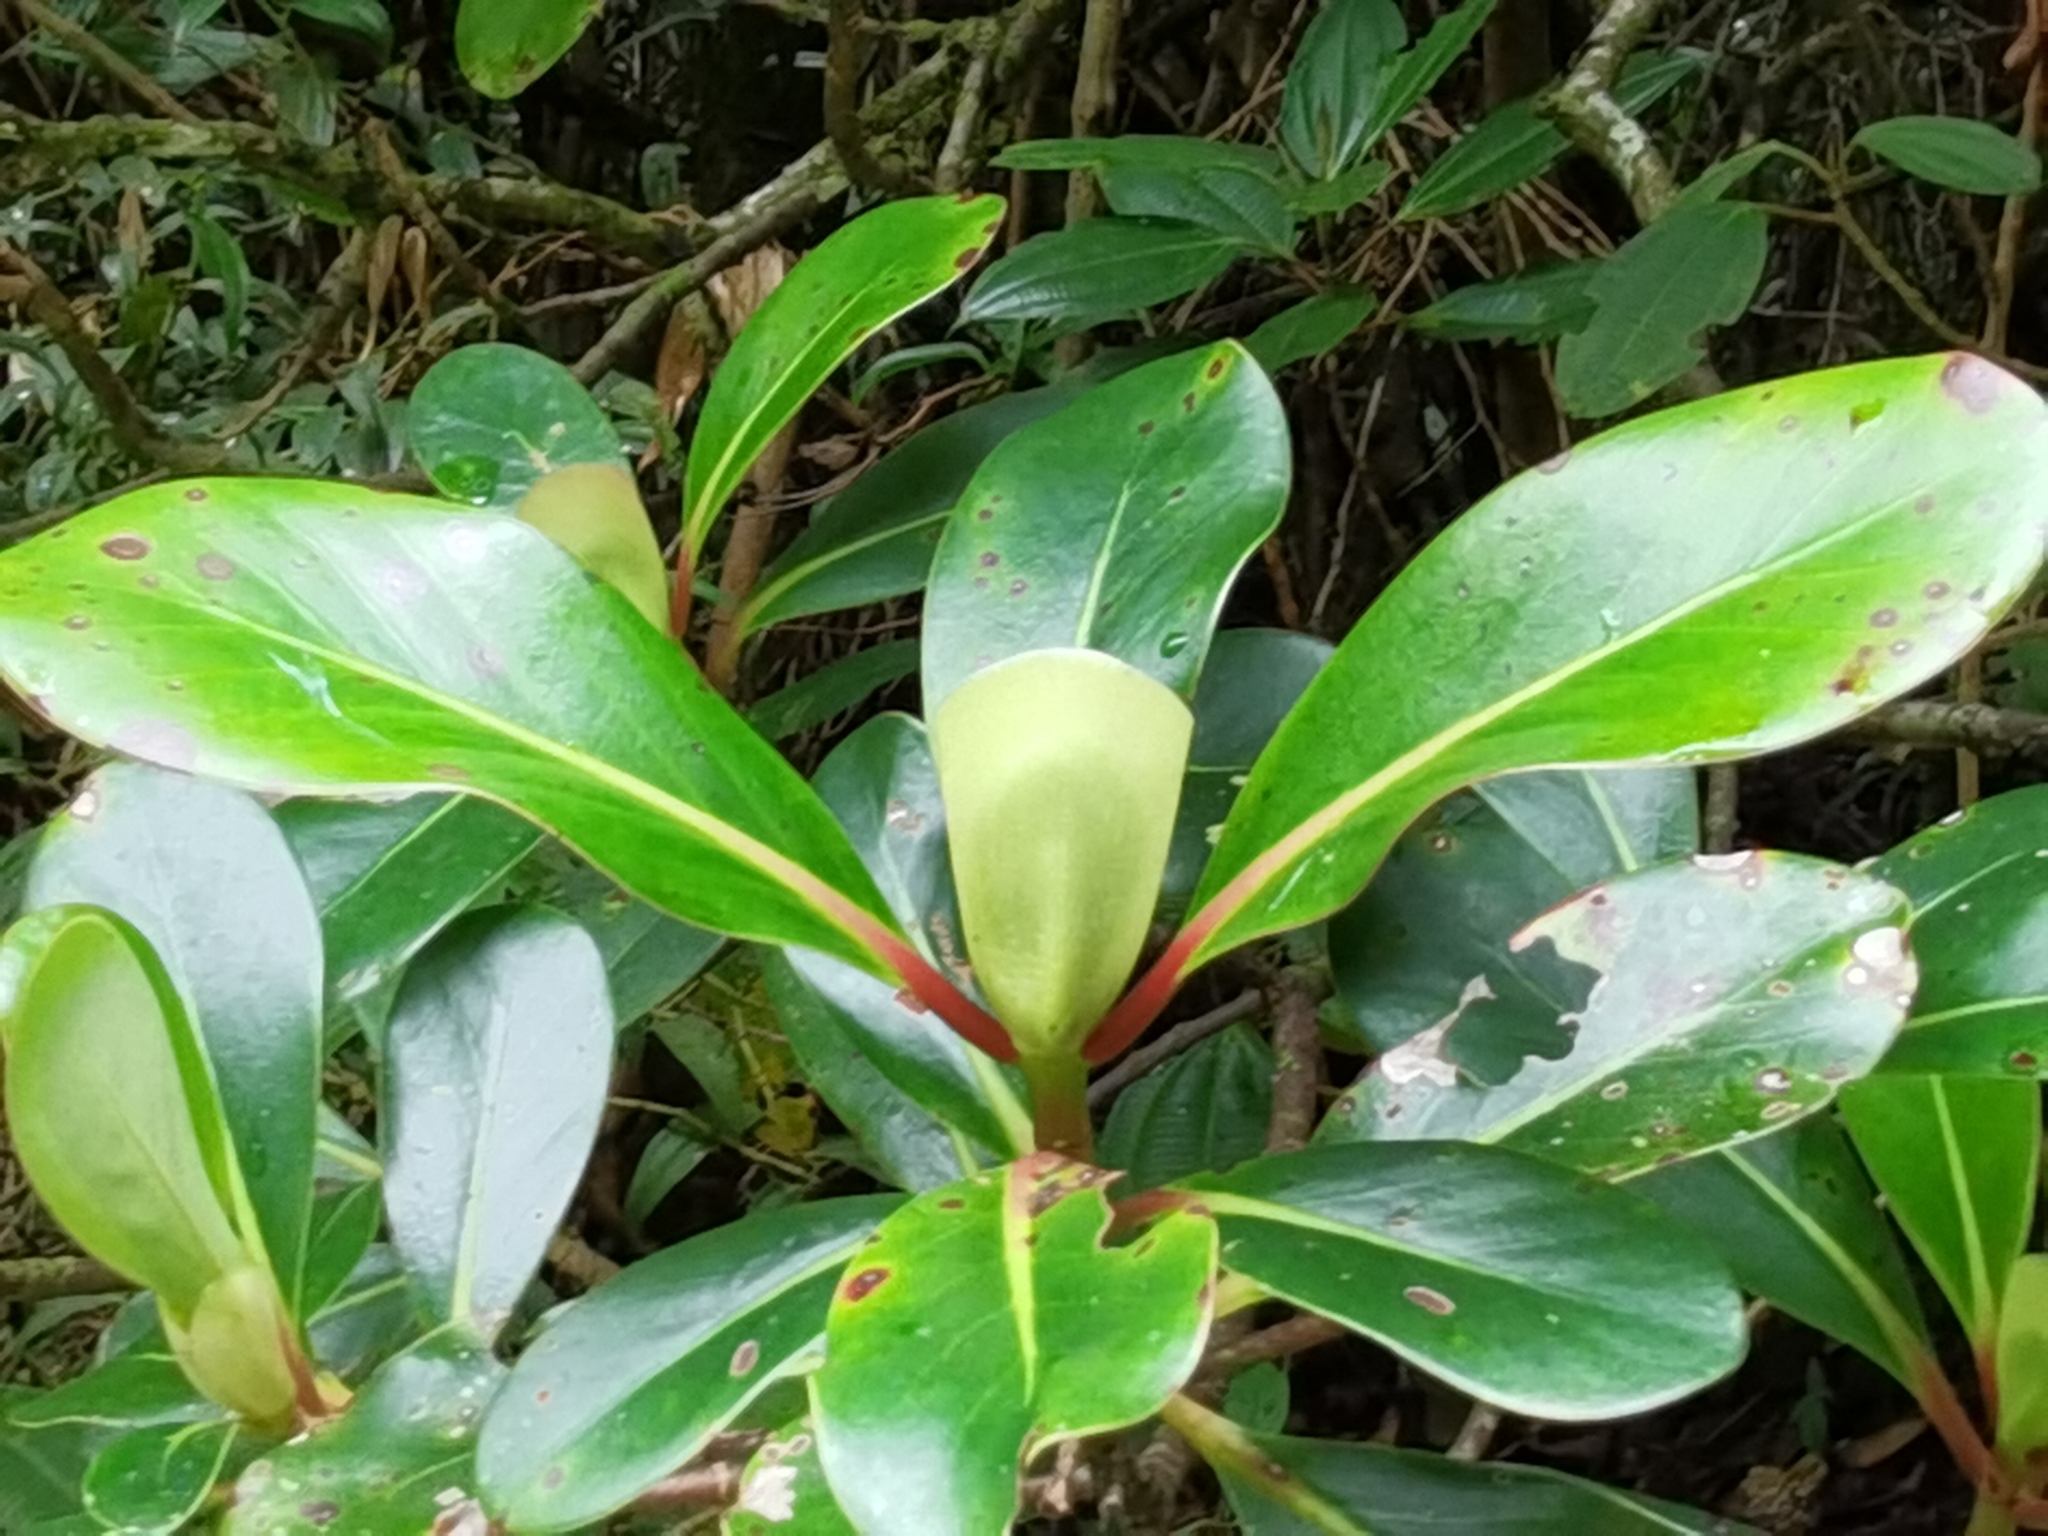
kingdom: Plantae
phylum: Tracheophyta
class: Magnoliopsida
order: Gentianales
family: Rubiaceae
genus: Cosmibuena
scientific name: Cosmibuena valerii
